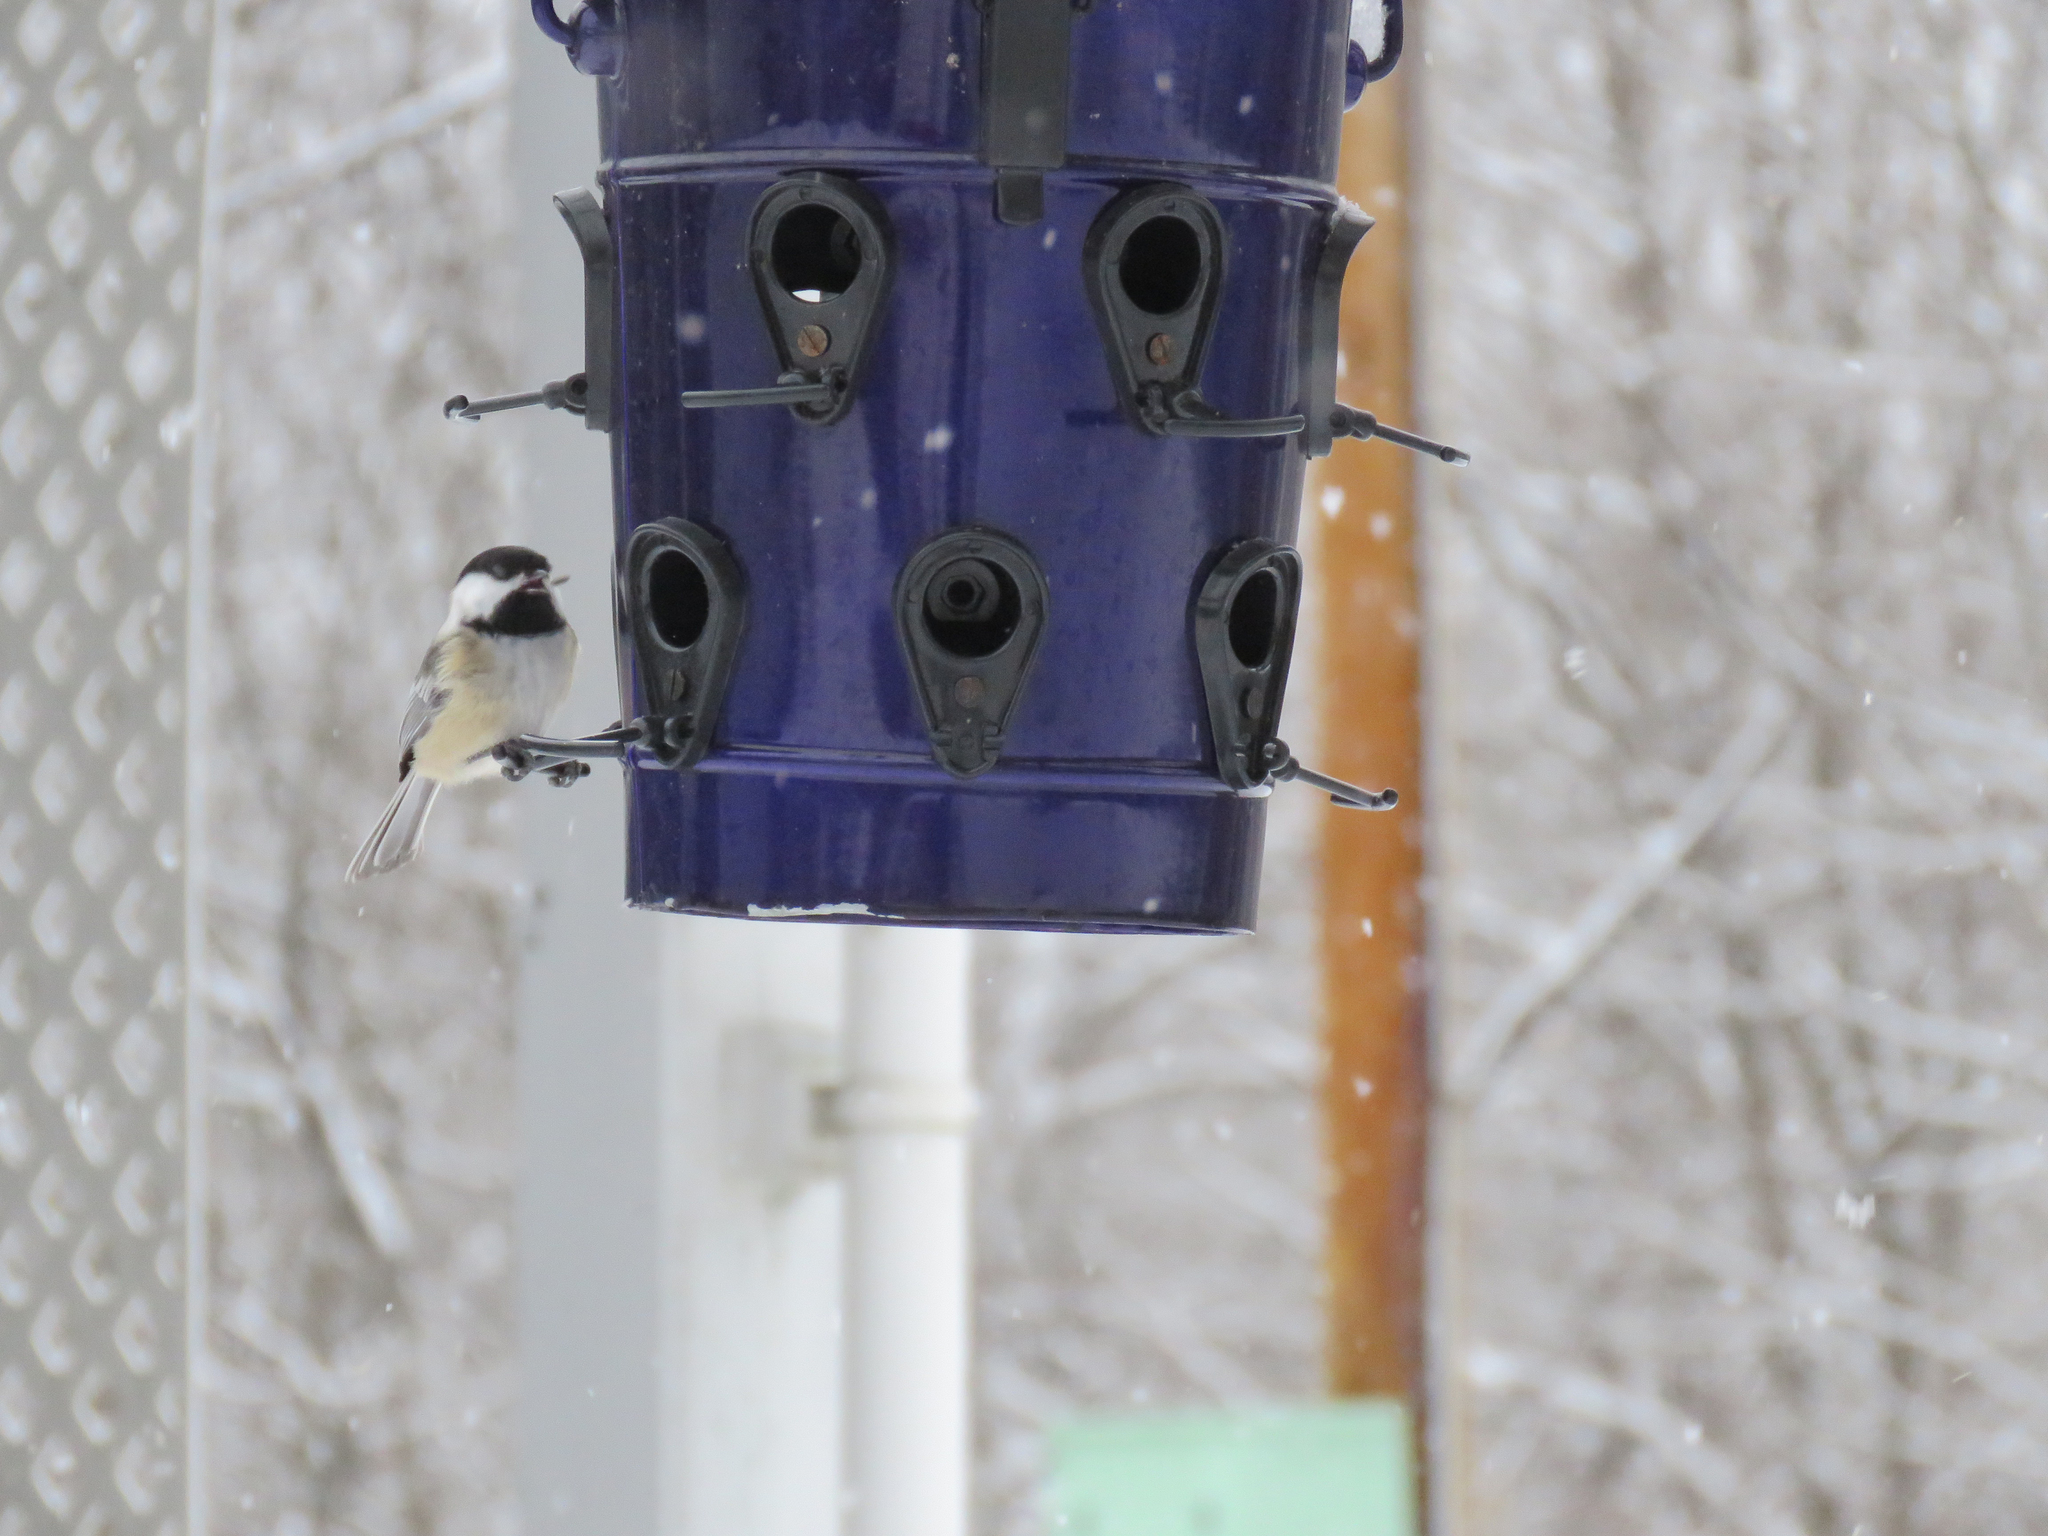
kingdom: Animalia
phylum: Chordata
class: Aves
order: Passeriformes
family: Paridae
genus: Poecile
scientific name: Poecile atricapillus
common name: Black-capped chickadee
